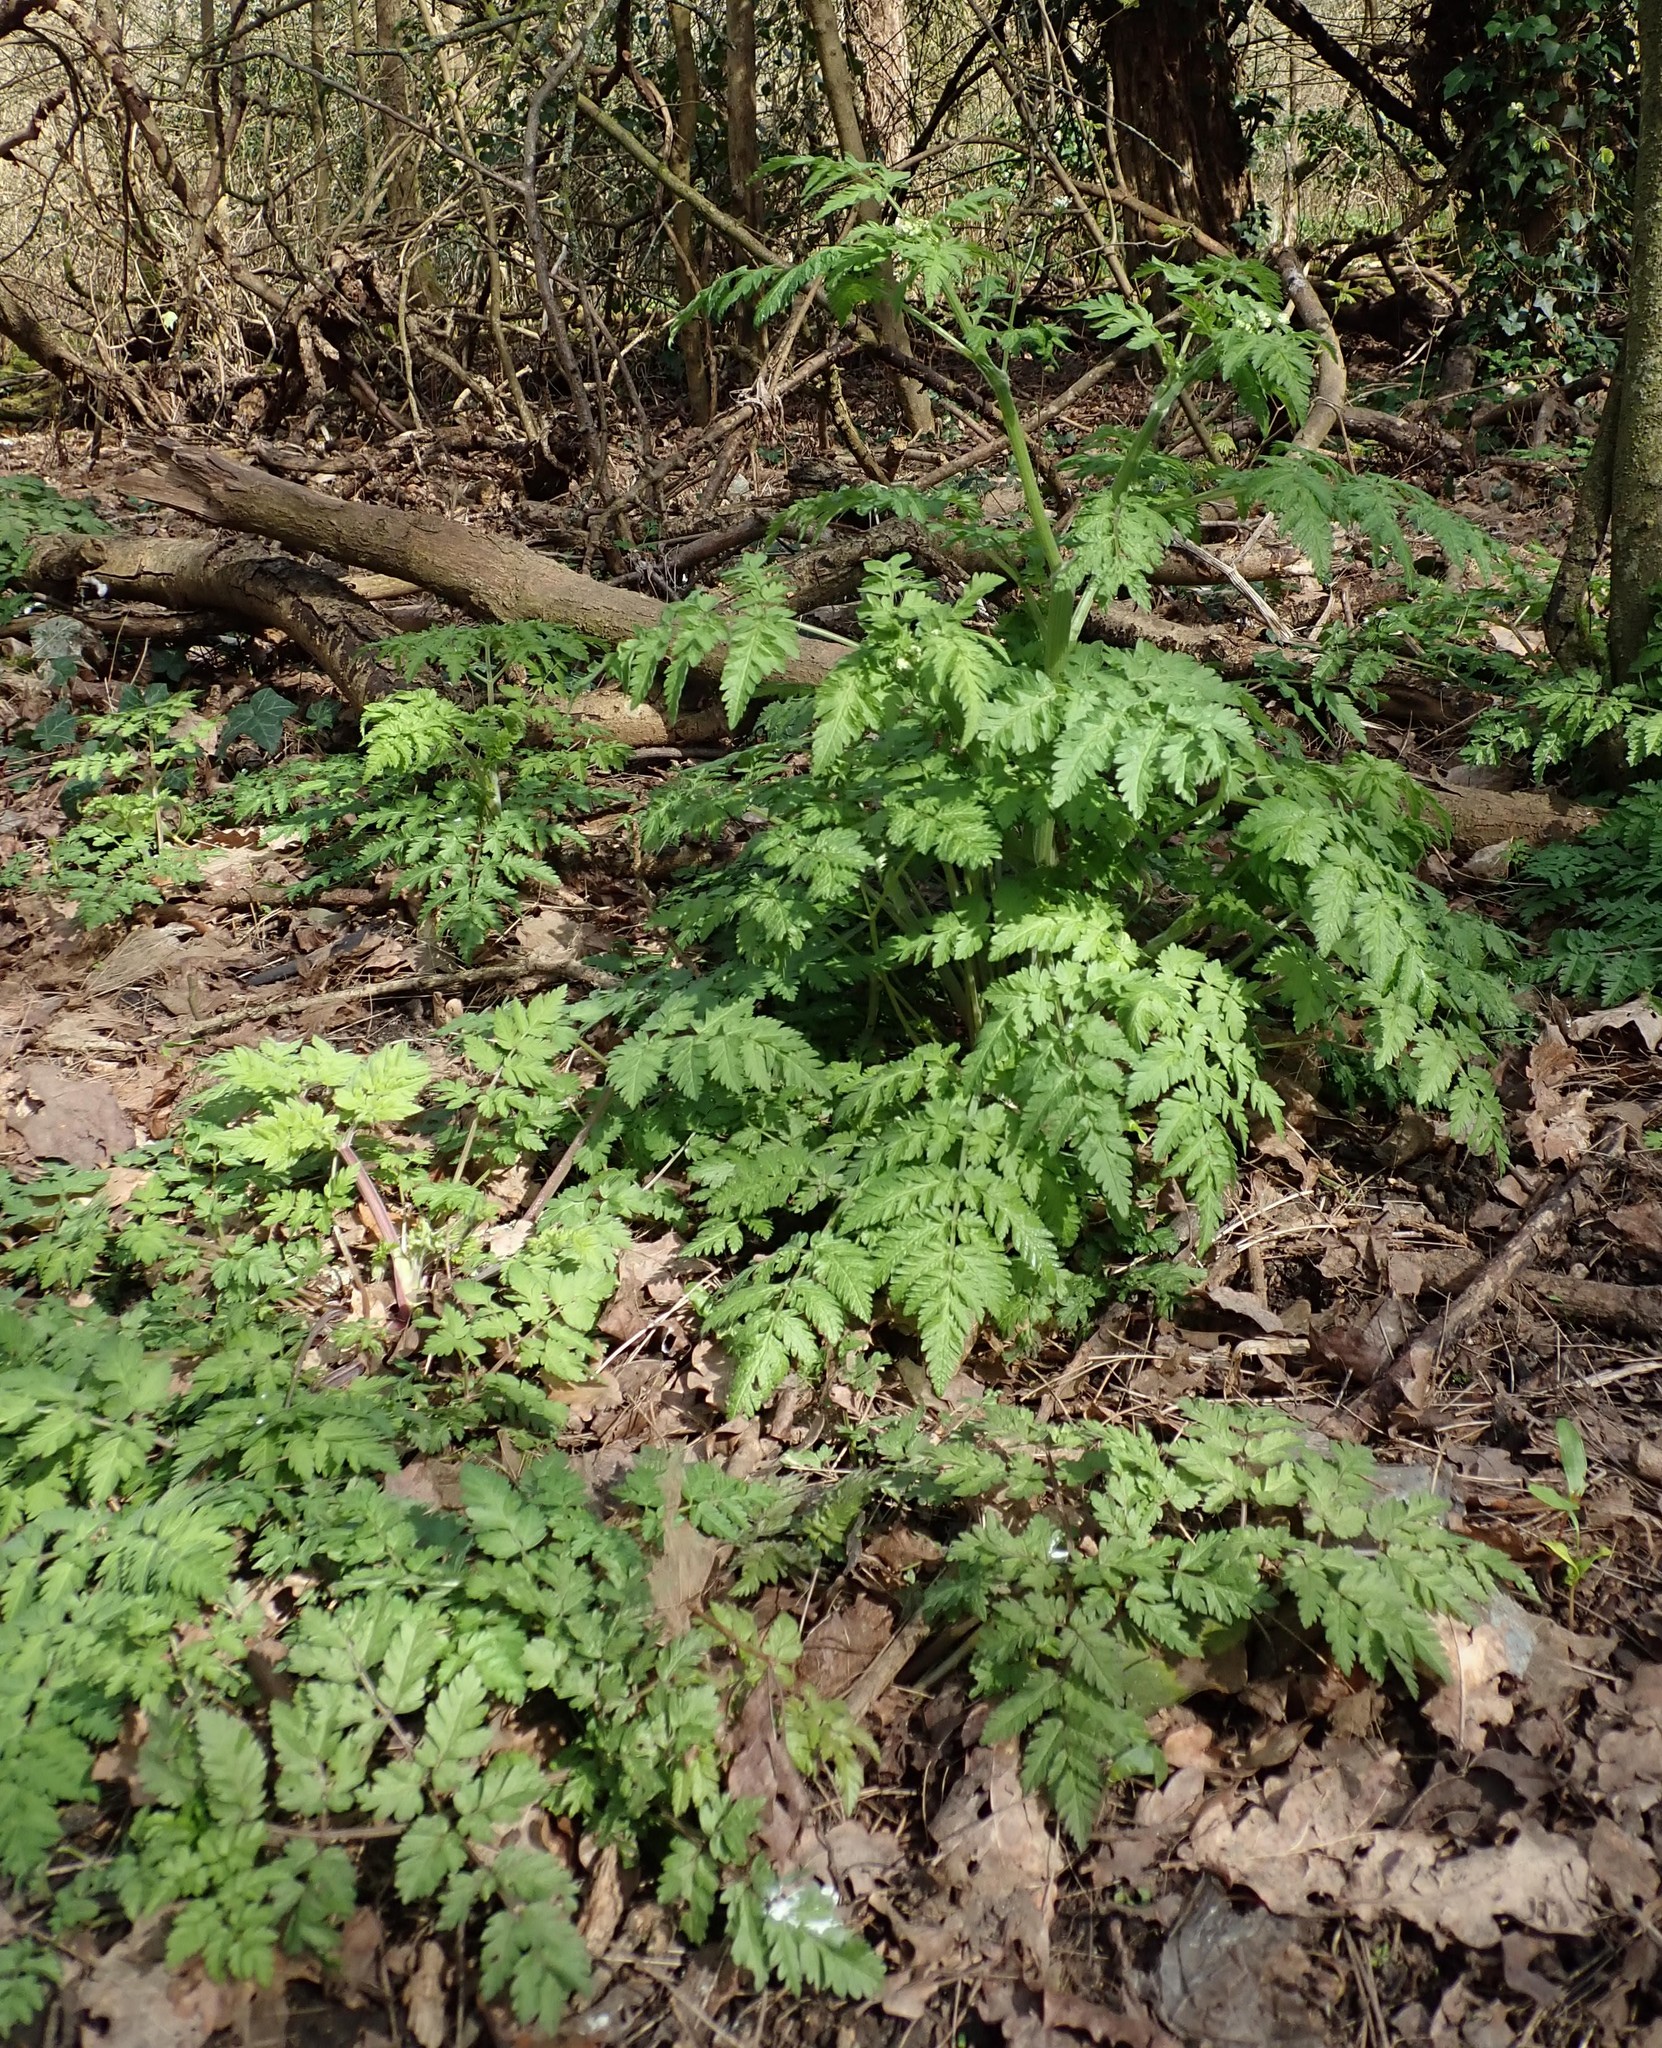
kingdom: Plantae
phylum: Tracheophyta
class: Magnoliopsida
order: Apiales
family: Apiaceae
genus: Anthriscus
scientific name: Anthriscus sylvestris
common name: Cow parsley
